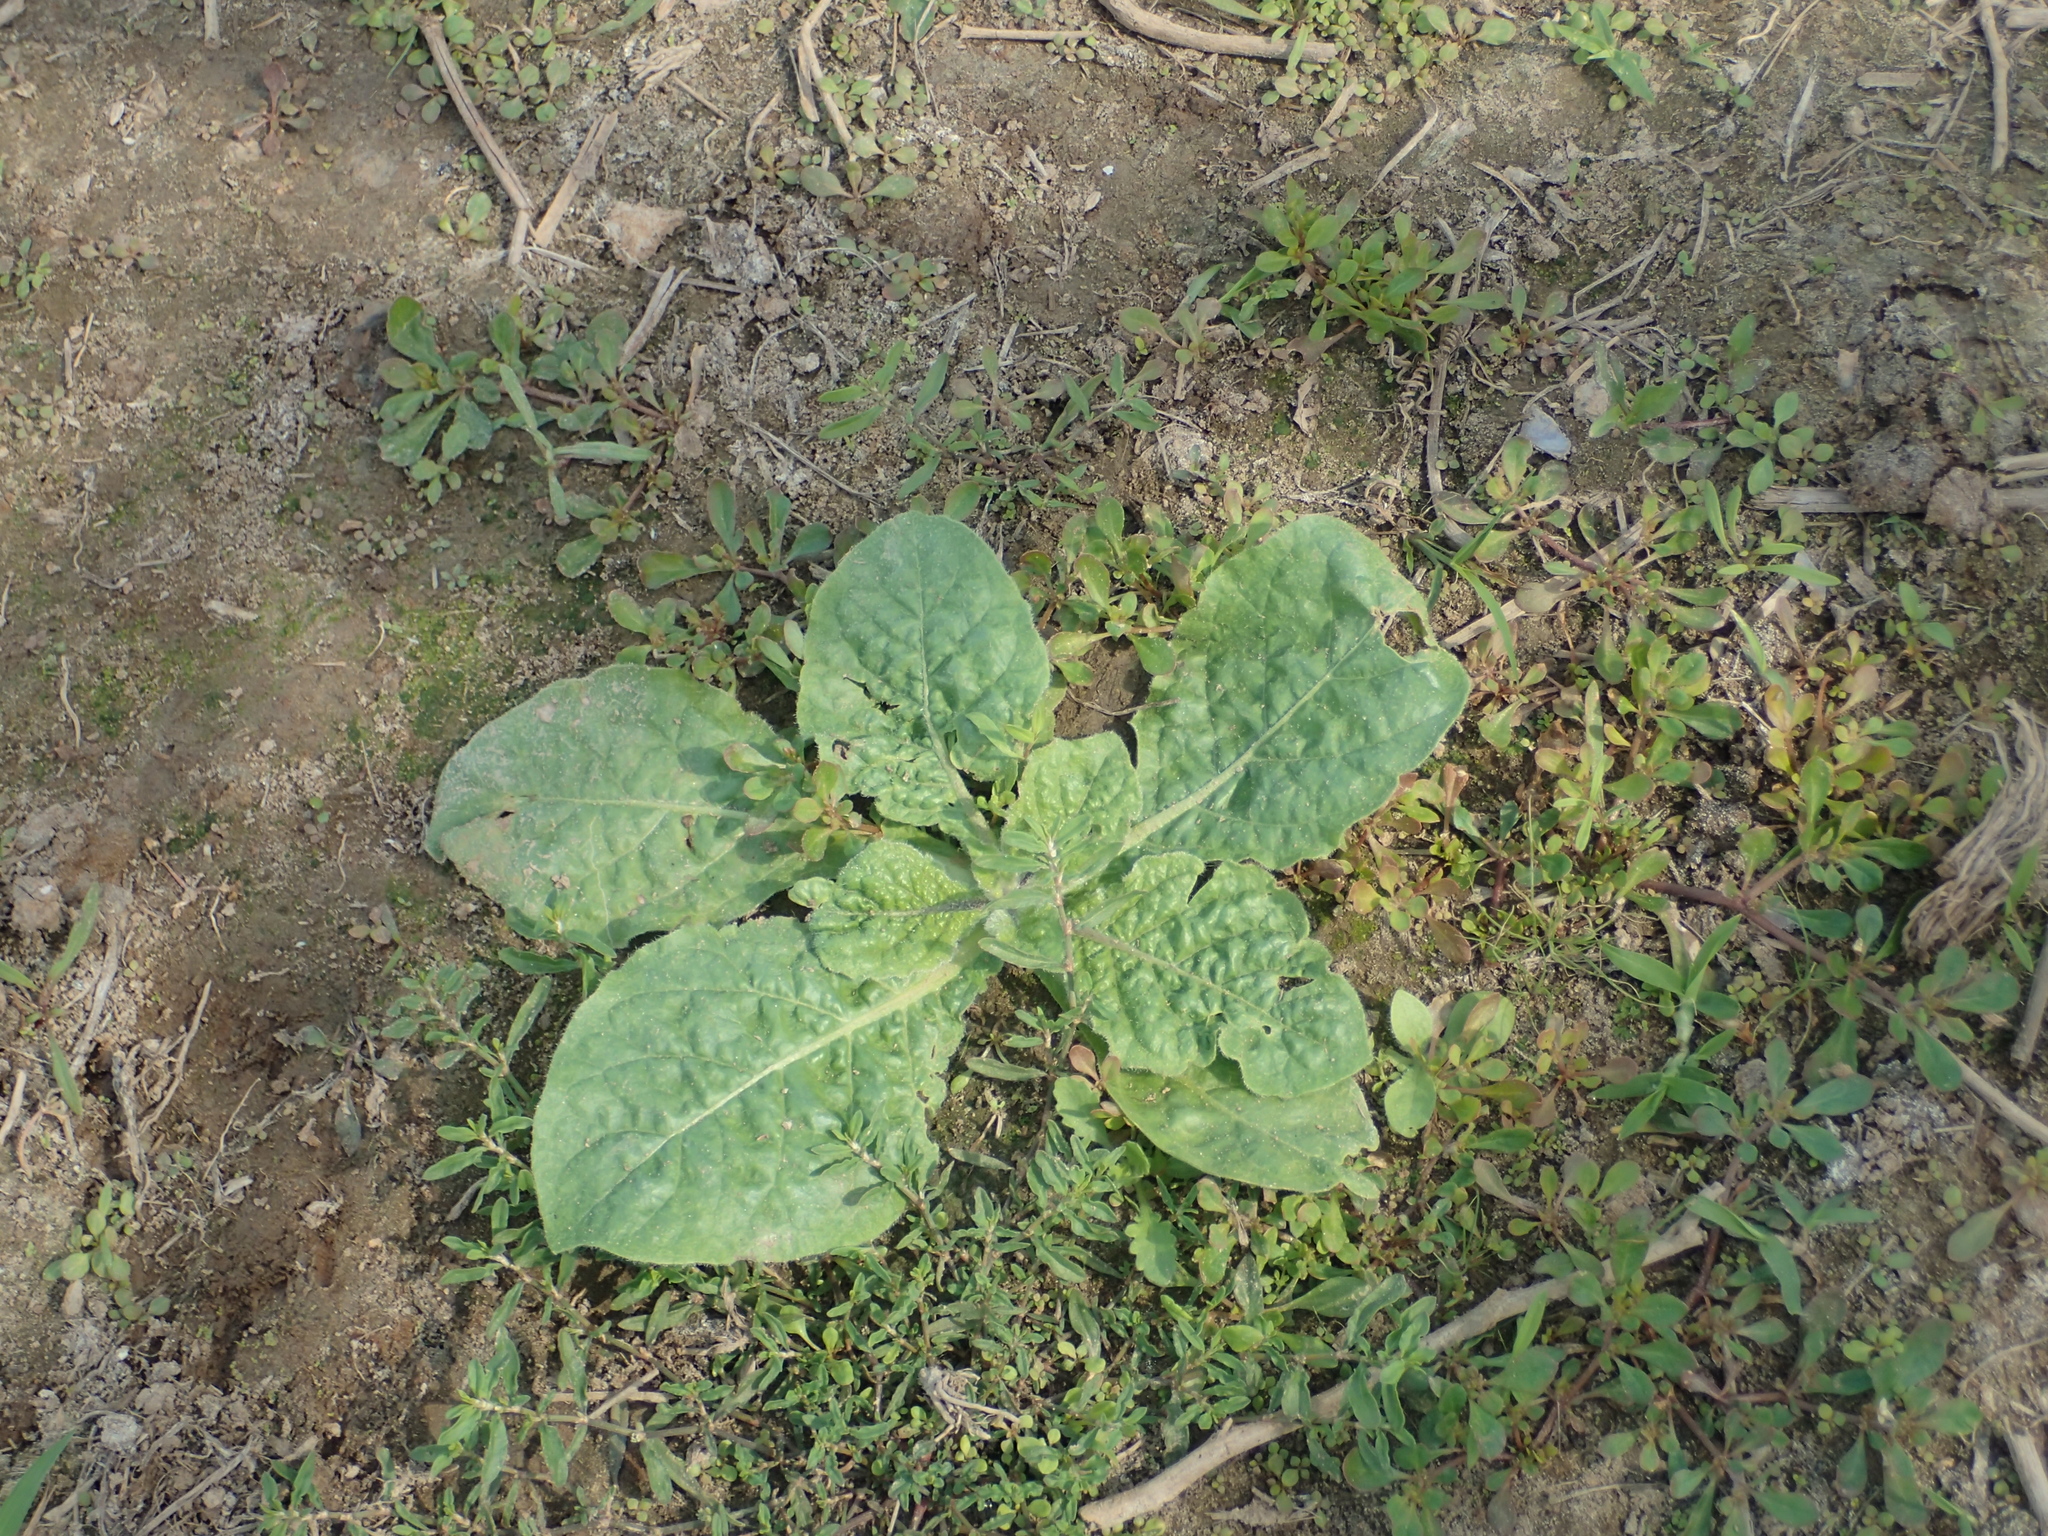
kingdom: Plantae
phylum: Tracheophyta
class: Magnoliopsida
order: Solanales
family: Solanaceae
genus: Nicotiana
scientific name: Nicotiana plumbaginifolia
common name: Tex-mex tobacco
